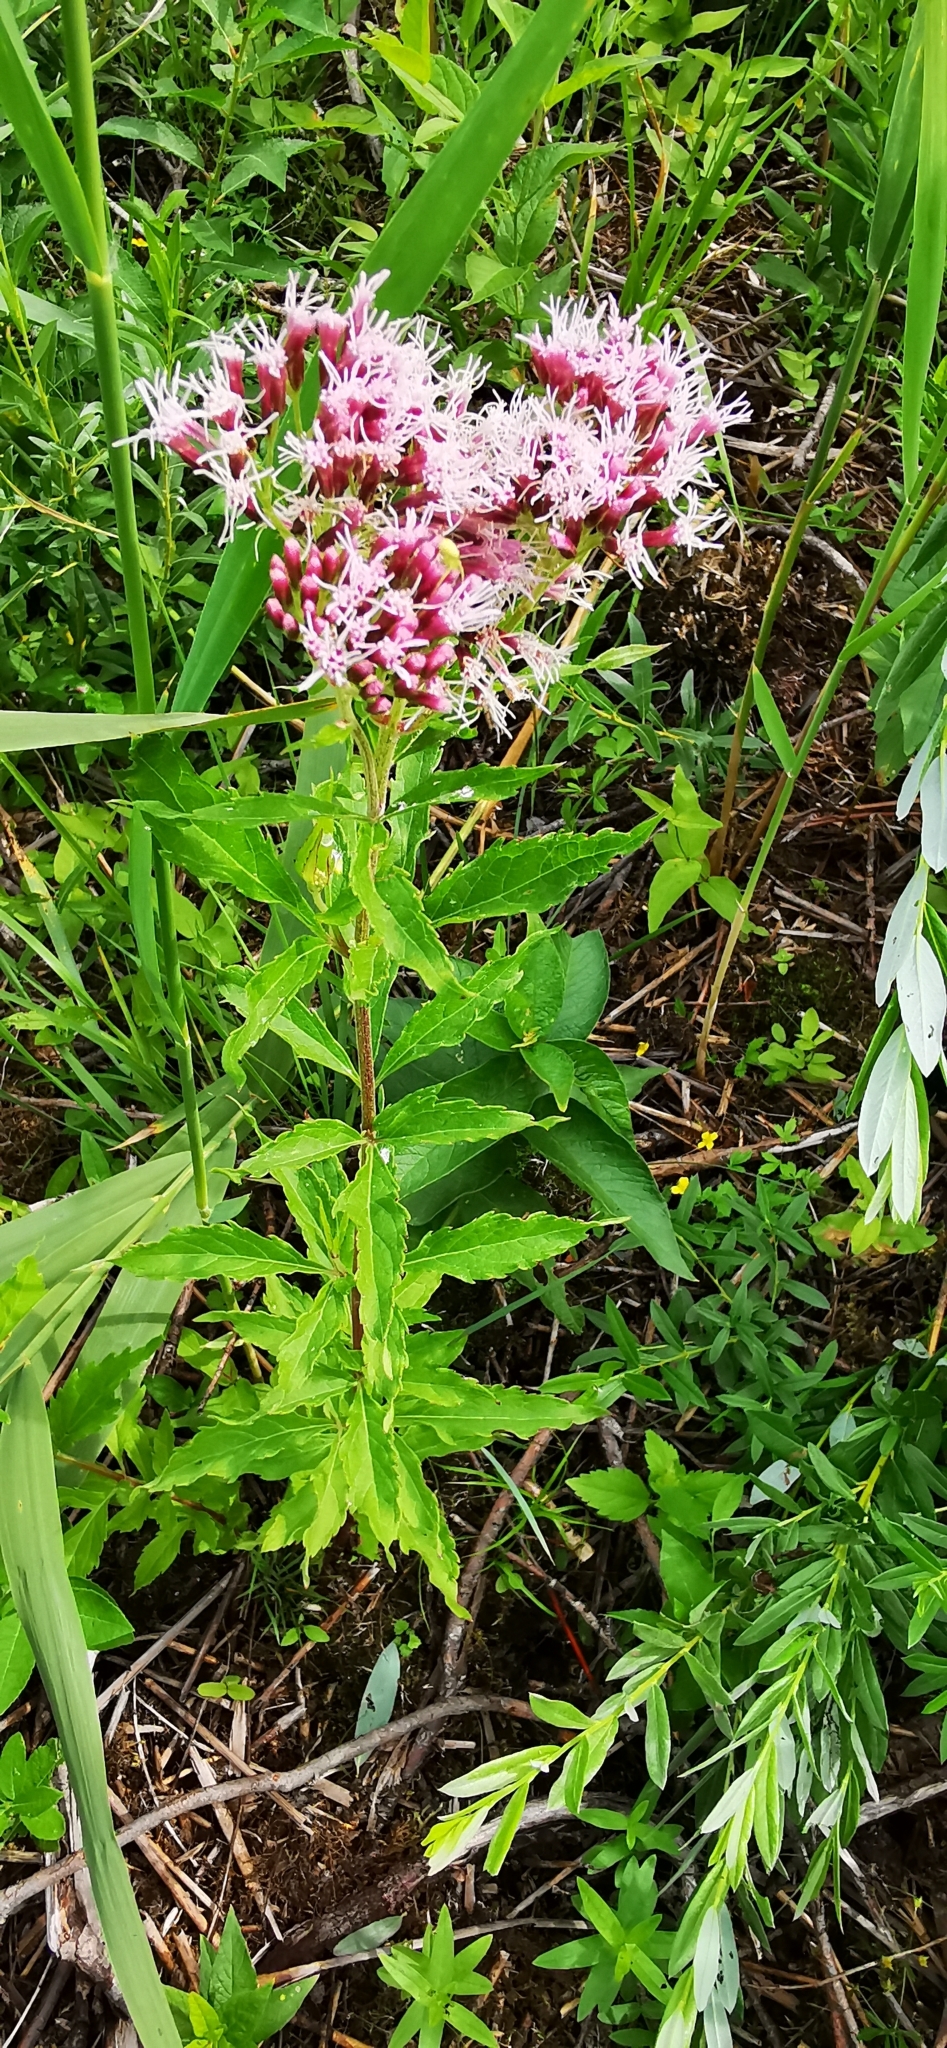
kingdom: Plantae
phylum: Tracheophyta
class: Magnoliopsida
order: Asterales
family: Asteraceae
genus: Eupatorium
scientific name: Eupatorium cannabinum
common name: Hemp-agrimony
